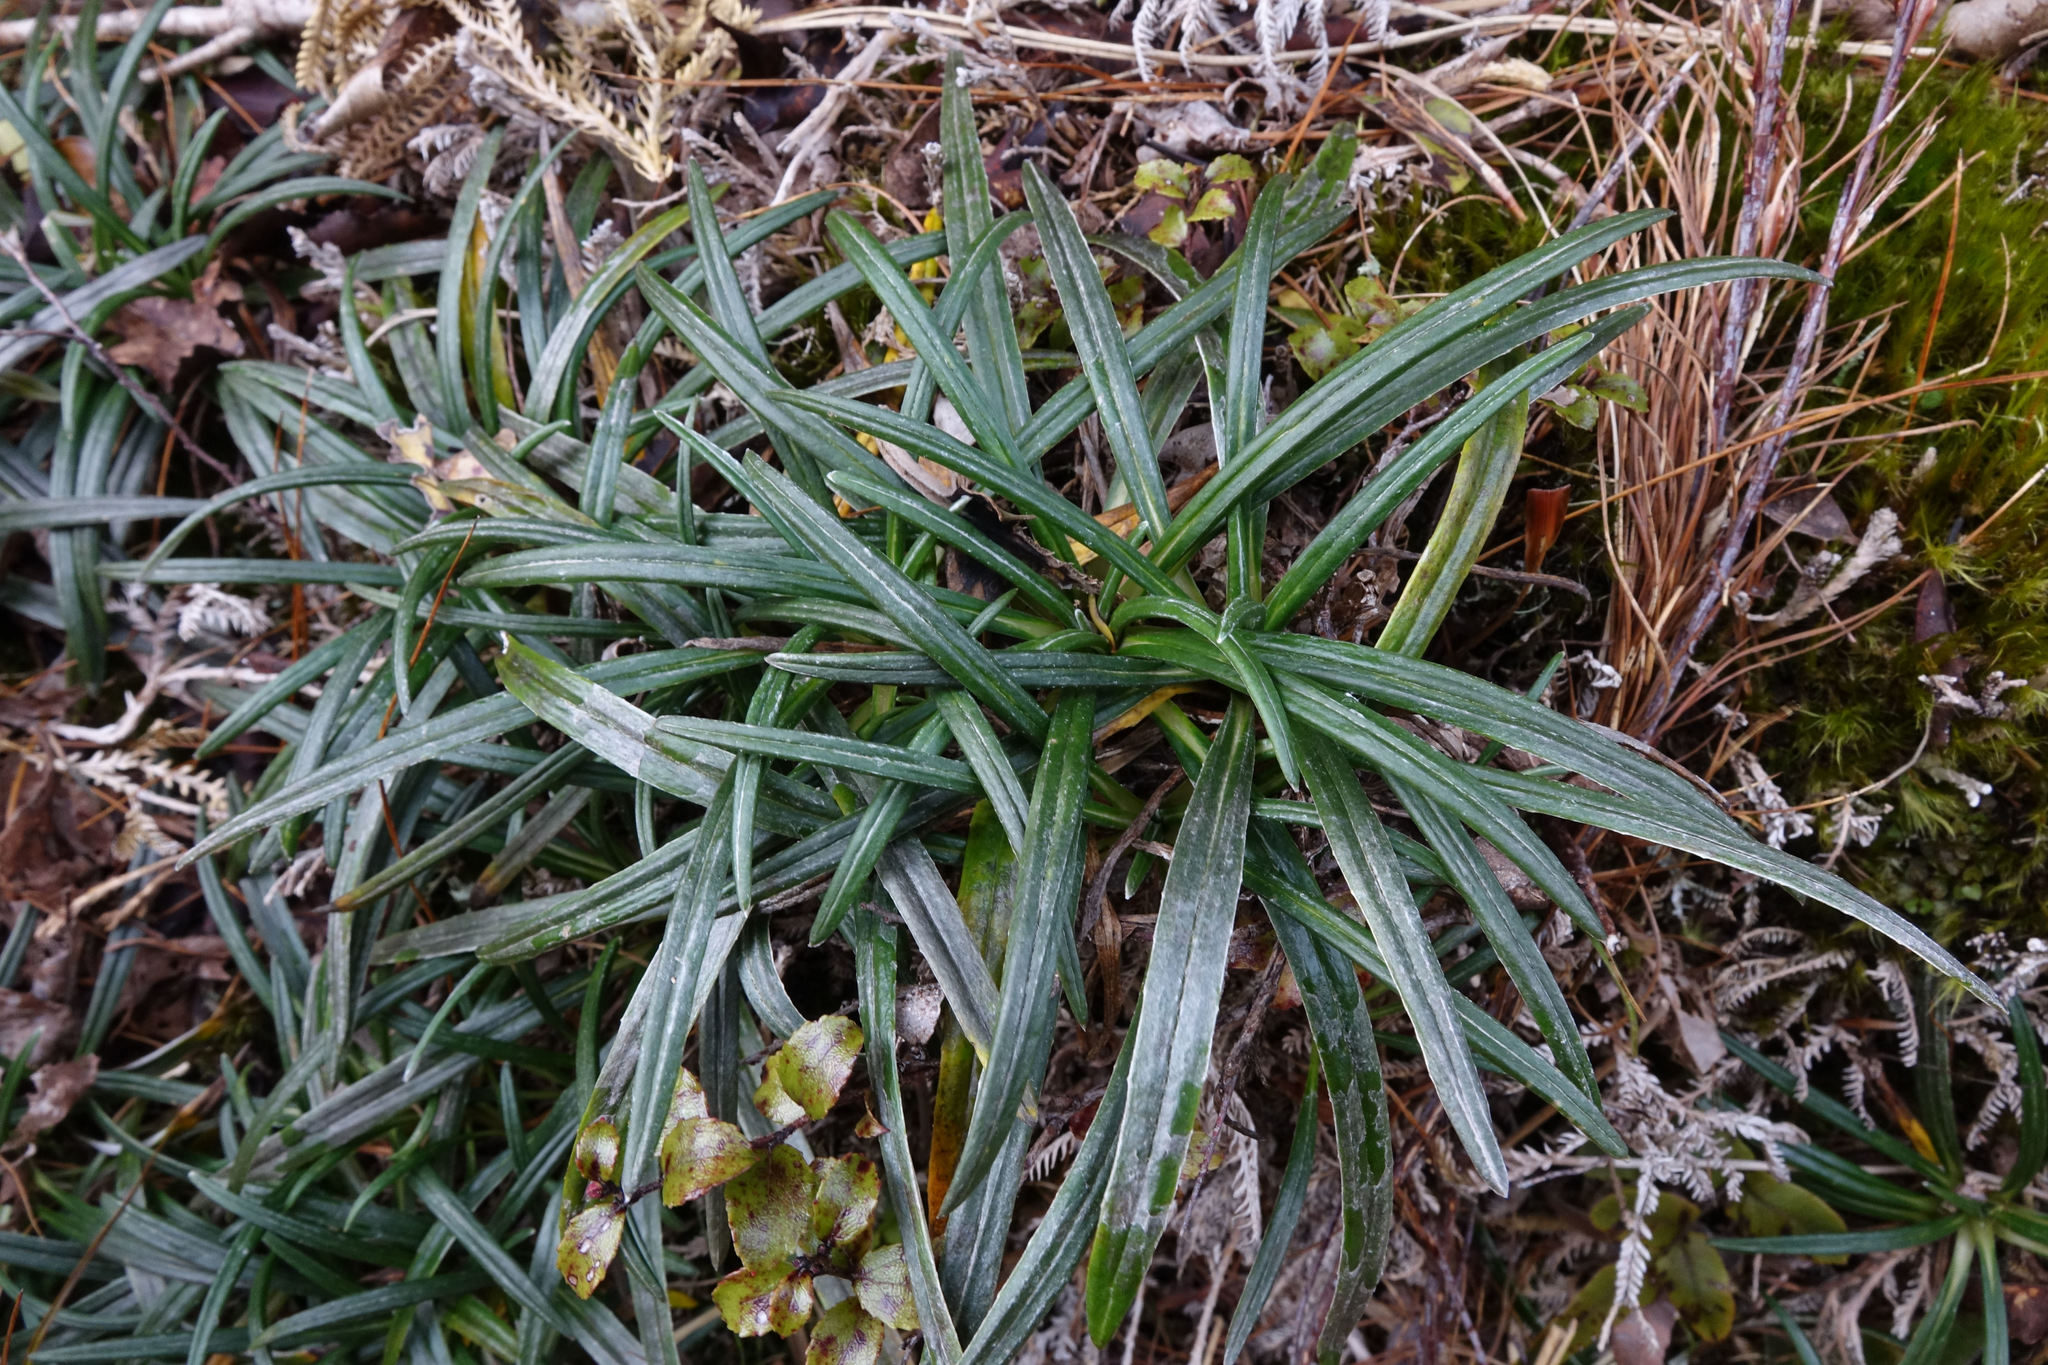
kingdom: Plantae
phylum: Tracheophyta
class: Magnoliopsida
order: Asterales
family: Asteraceae
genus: Celmisia
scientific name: Celmisia major
